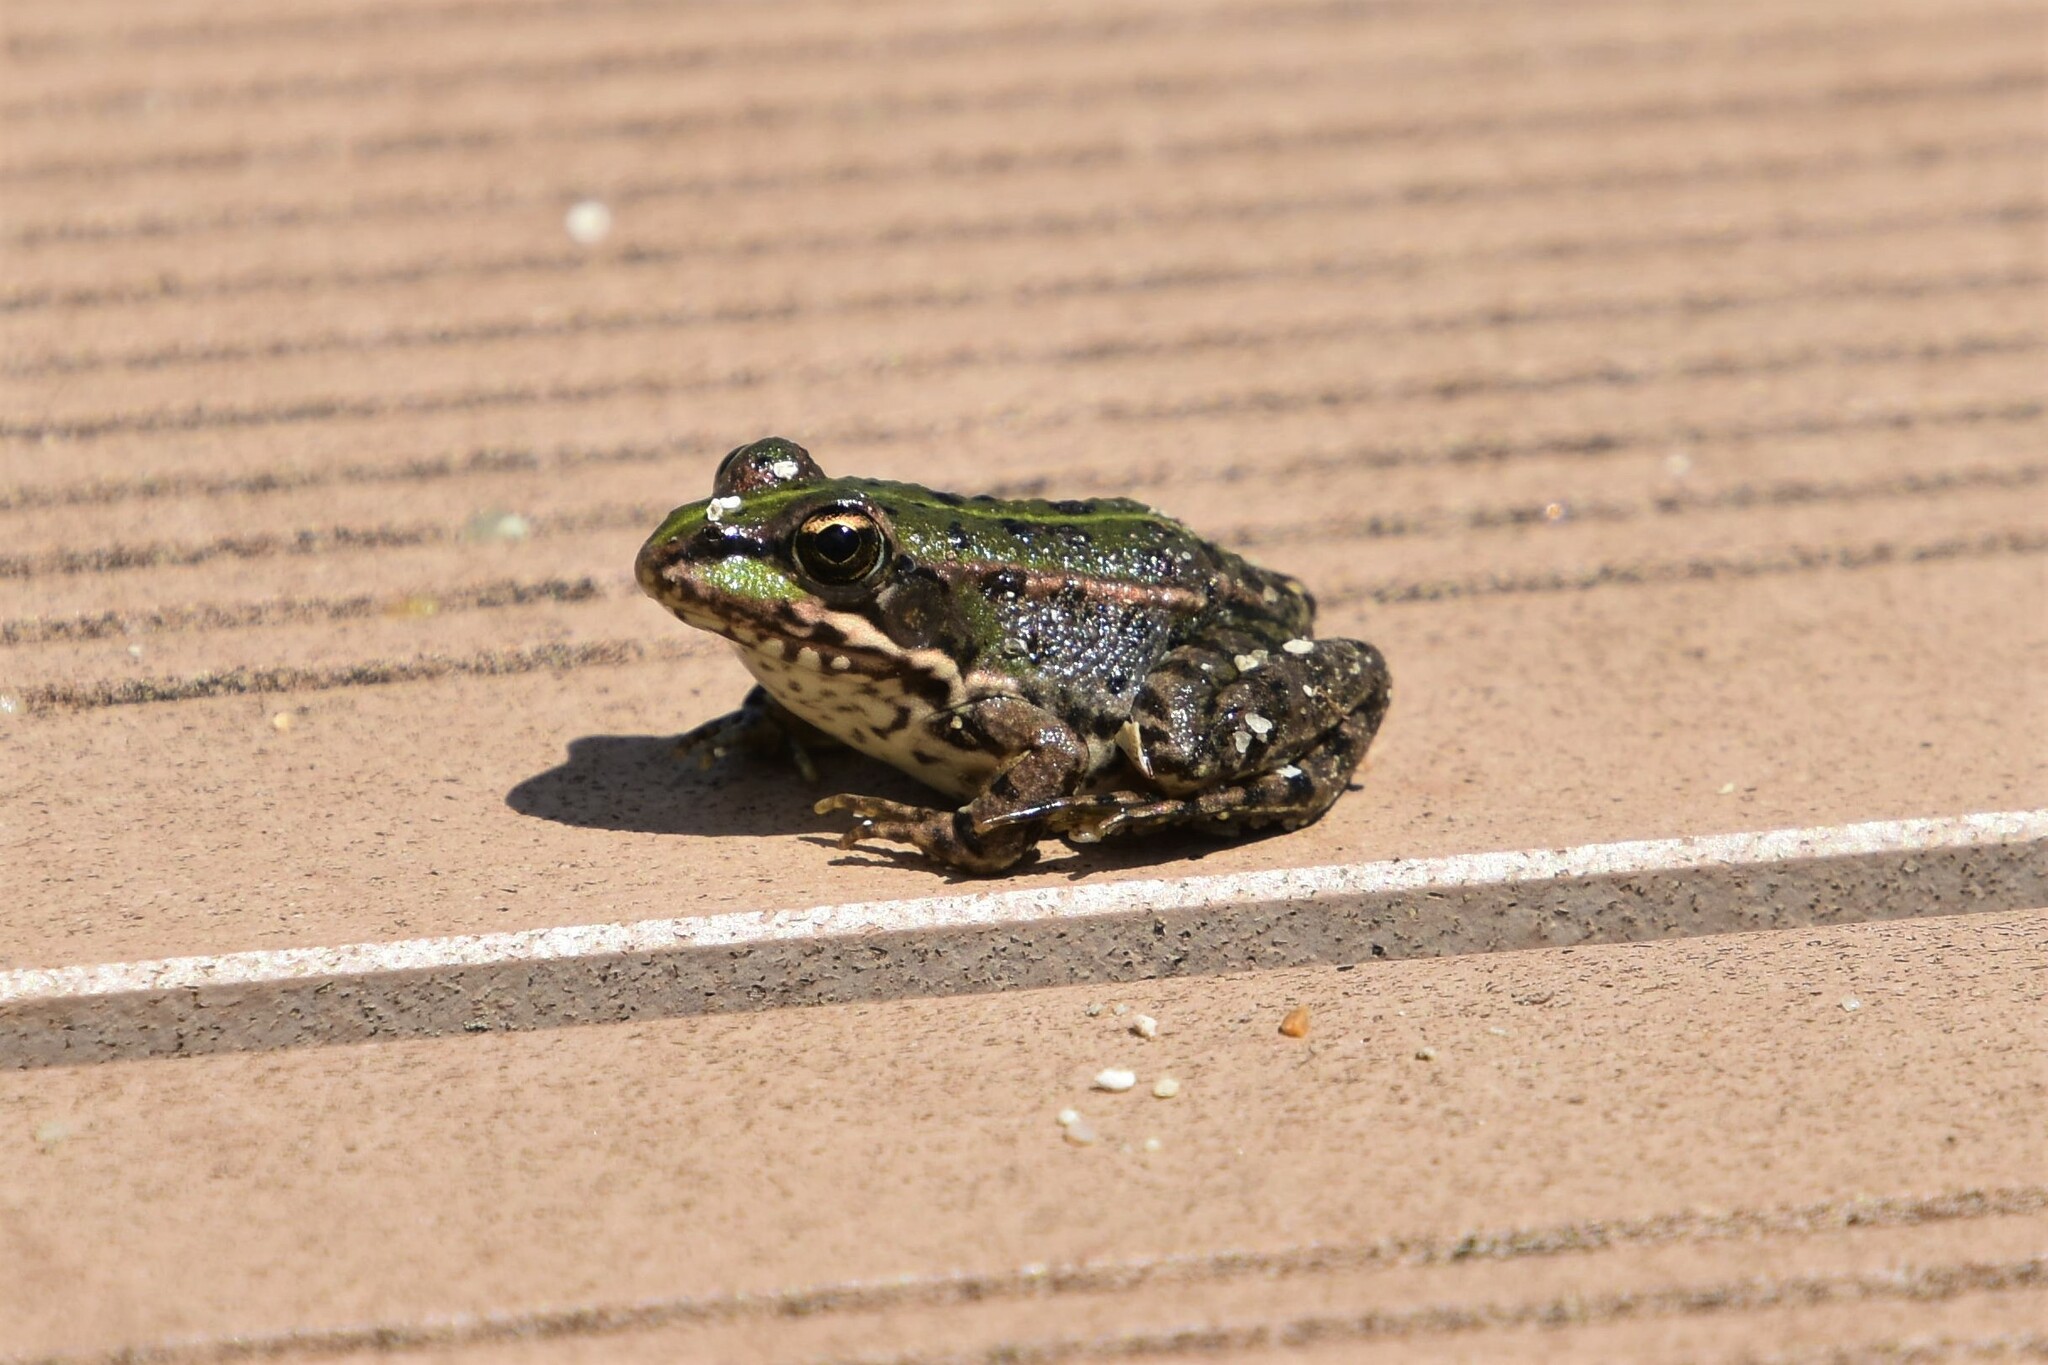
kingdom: Animalia
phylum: Chordata
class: Amphibia
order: Anura
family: Ranidae
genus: Pelophylax
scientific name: Pelophylax perezi
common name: Perez's frog
